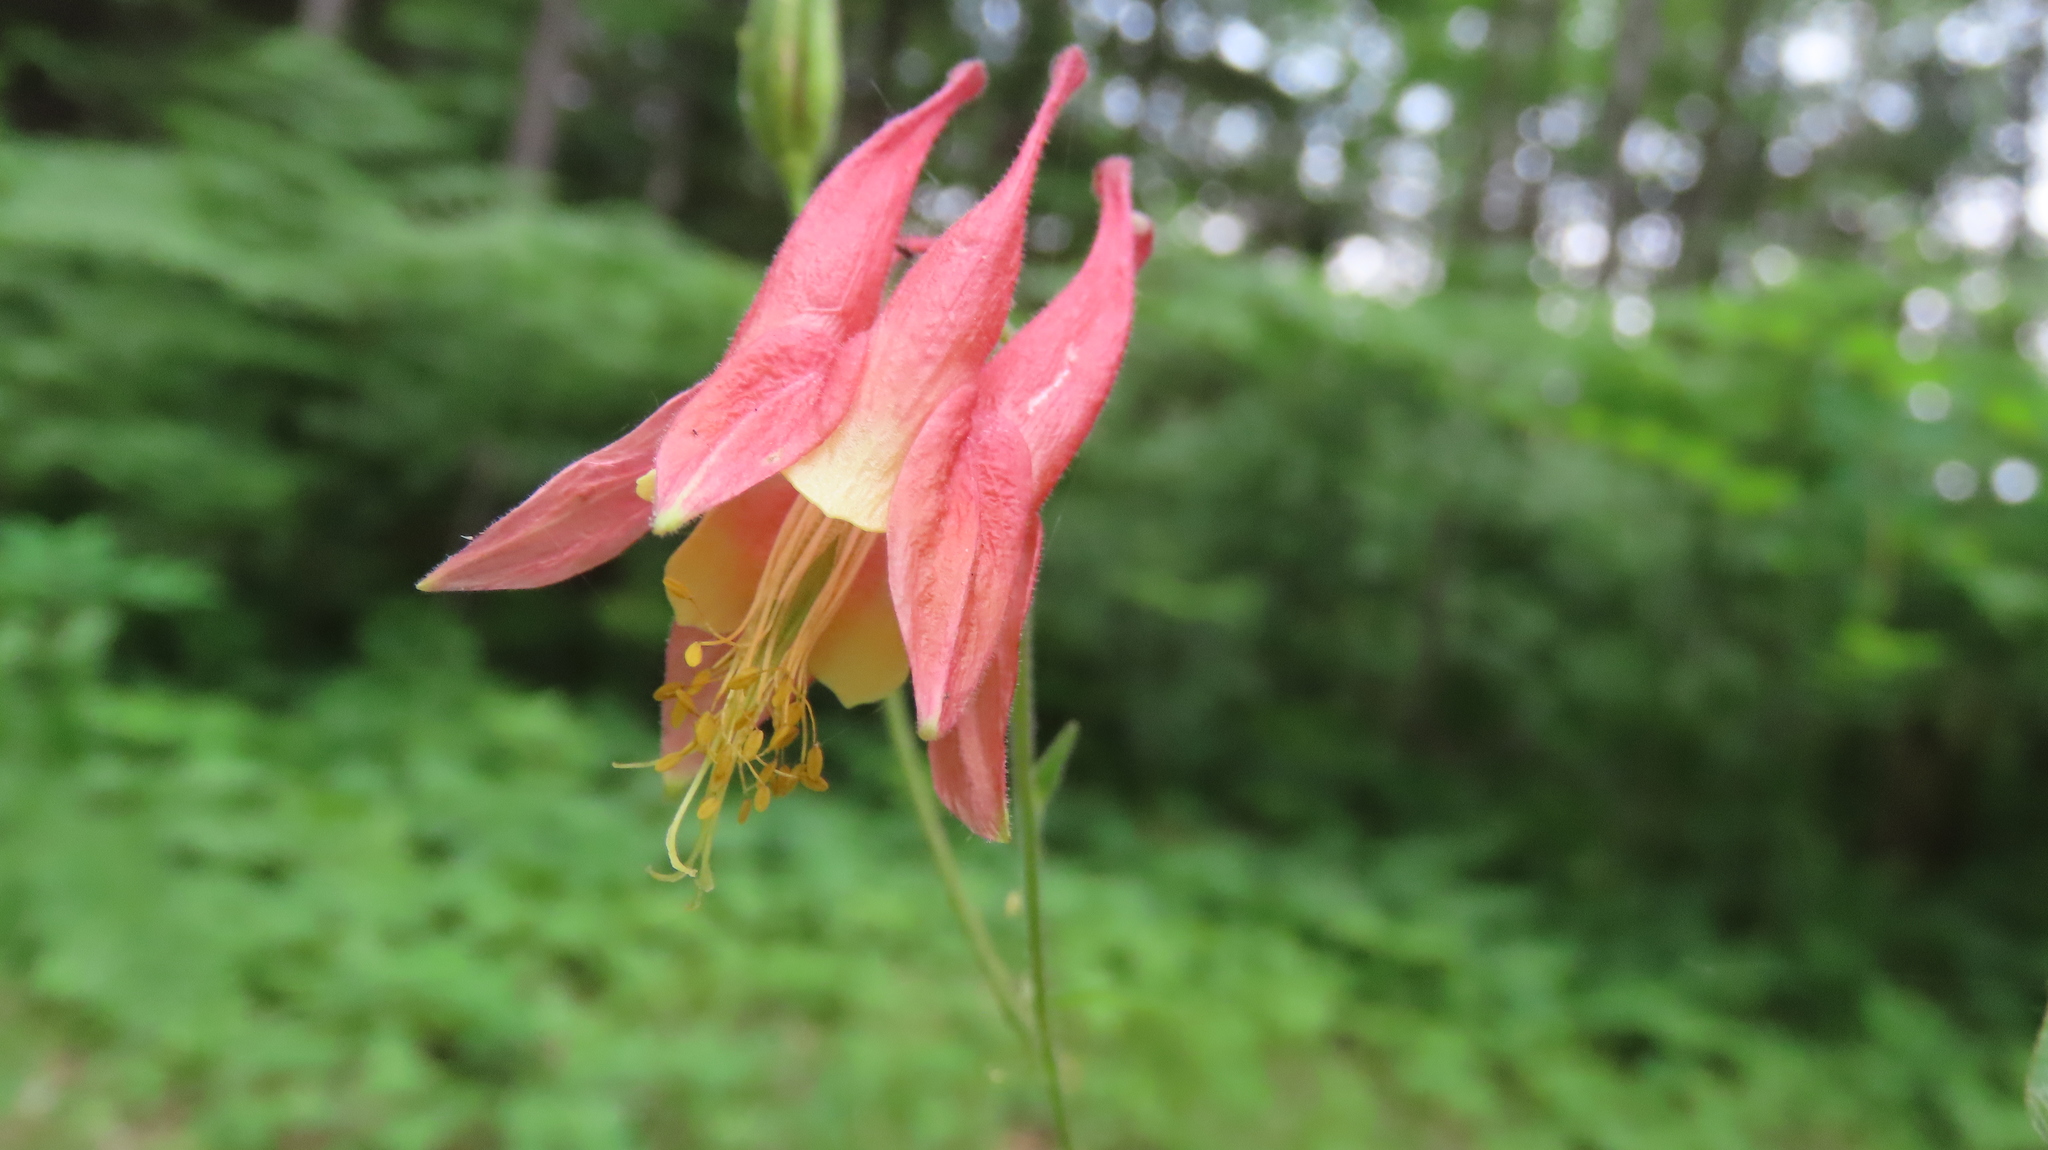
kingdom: Plantae
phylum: Tracheophyta
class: Magnoliopsida
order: Ranunculales
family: Ranunculaceae
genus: Aquilegia
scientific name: Aquilegia canadensis
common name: American columbine
